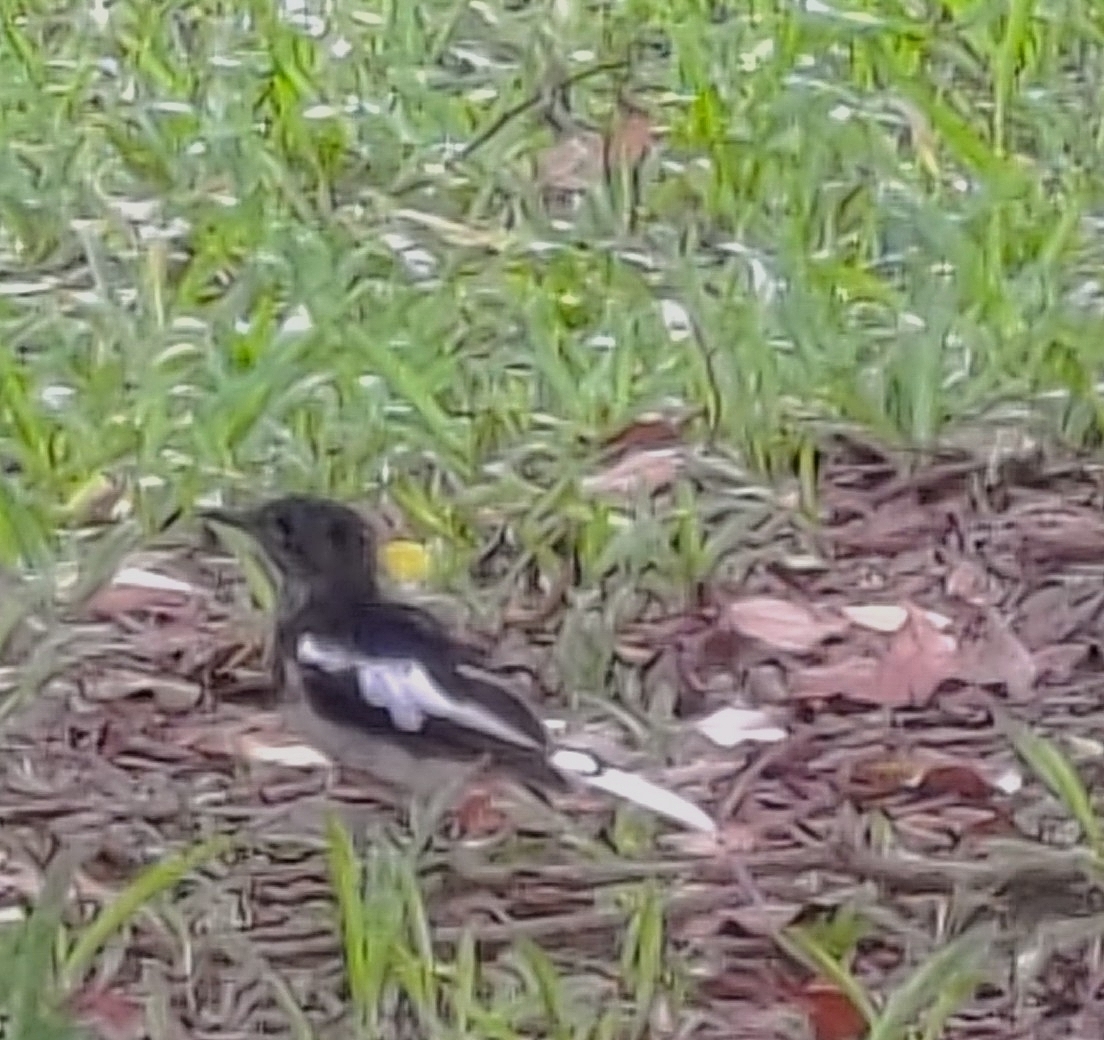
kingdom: Animalia
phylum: Chordata
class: Aves
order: Passeriformes
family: Muscicapidae
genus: Copsychus
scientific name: Copsychus saularis
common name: Oriental magpie-robin
